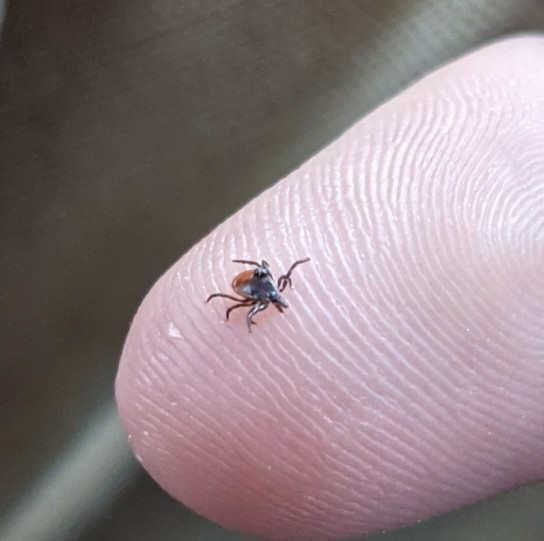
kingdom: Animalia
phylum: Arthropoda
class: Arachnida
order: Ixodida
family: Ixodidae
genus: Ixodes
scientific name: Ixodes scapularis
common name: Black legged tick
